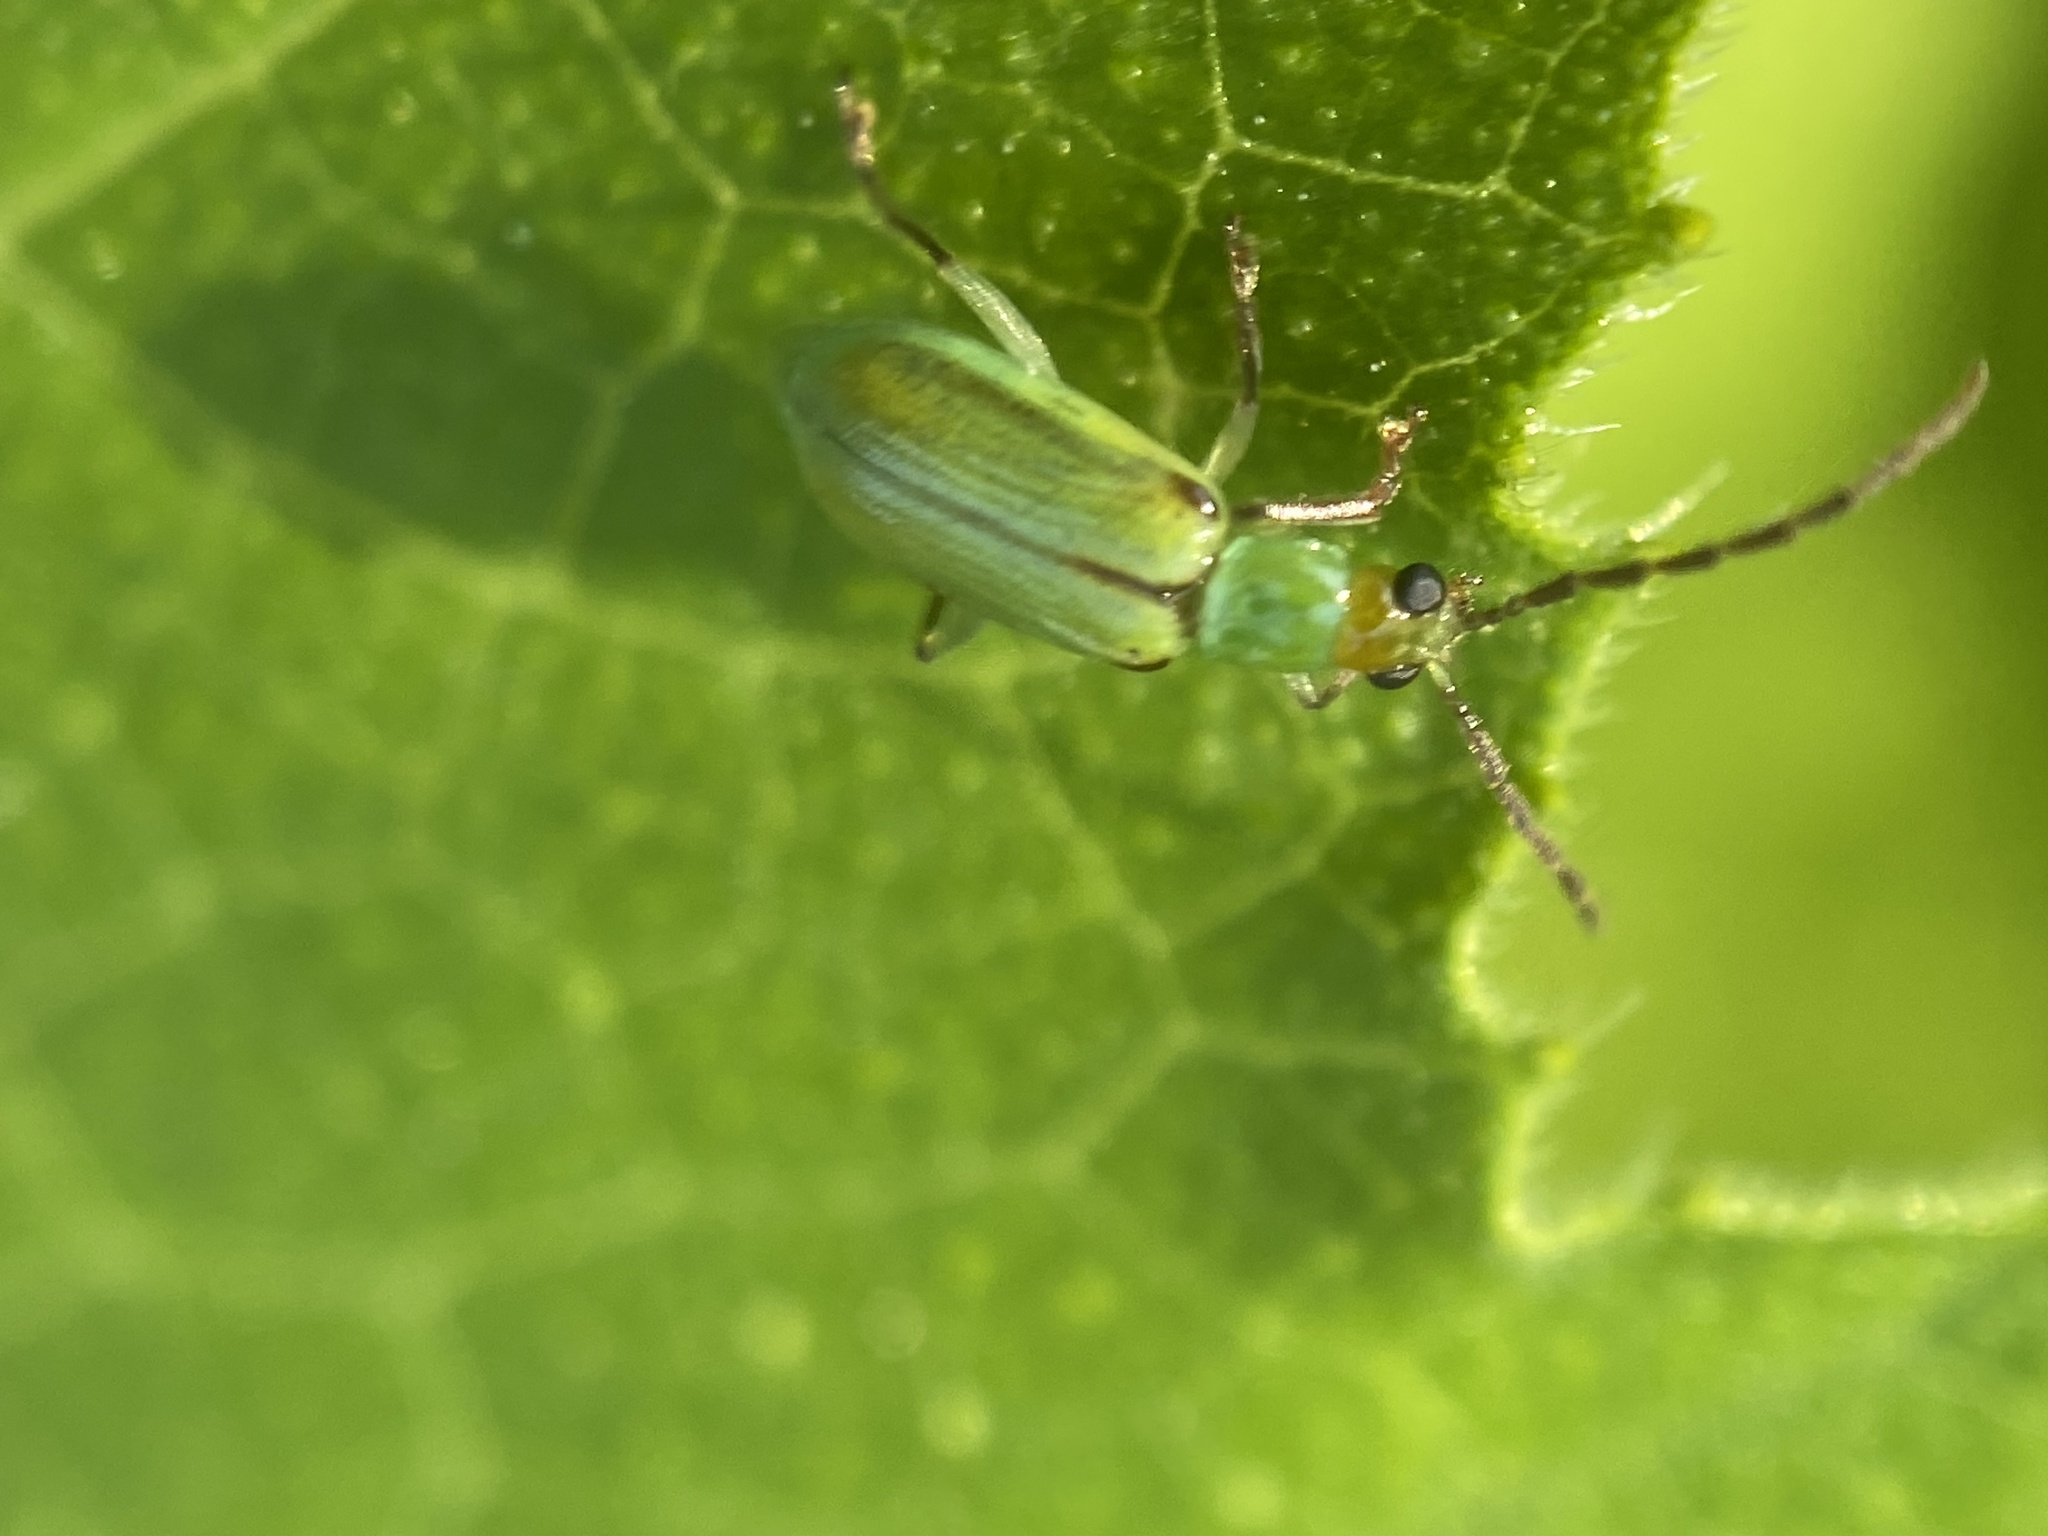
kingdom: Animalia
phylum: Arthropoda
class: Insecta
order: Coleoptera
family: Chrysomelidae
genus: Diabrotica
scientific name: Diabrotica barberi
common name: Northern corn rootworm
